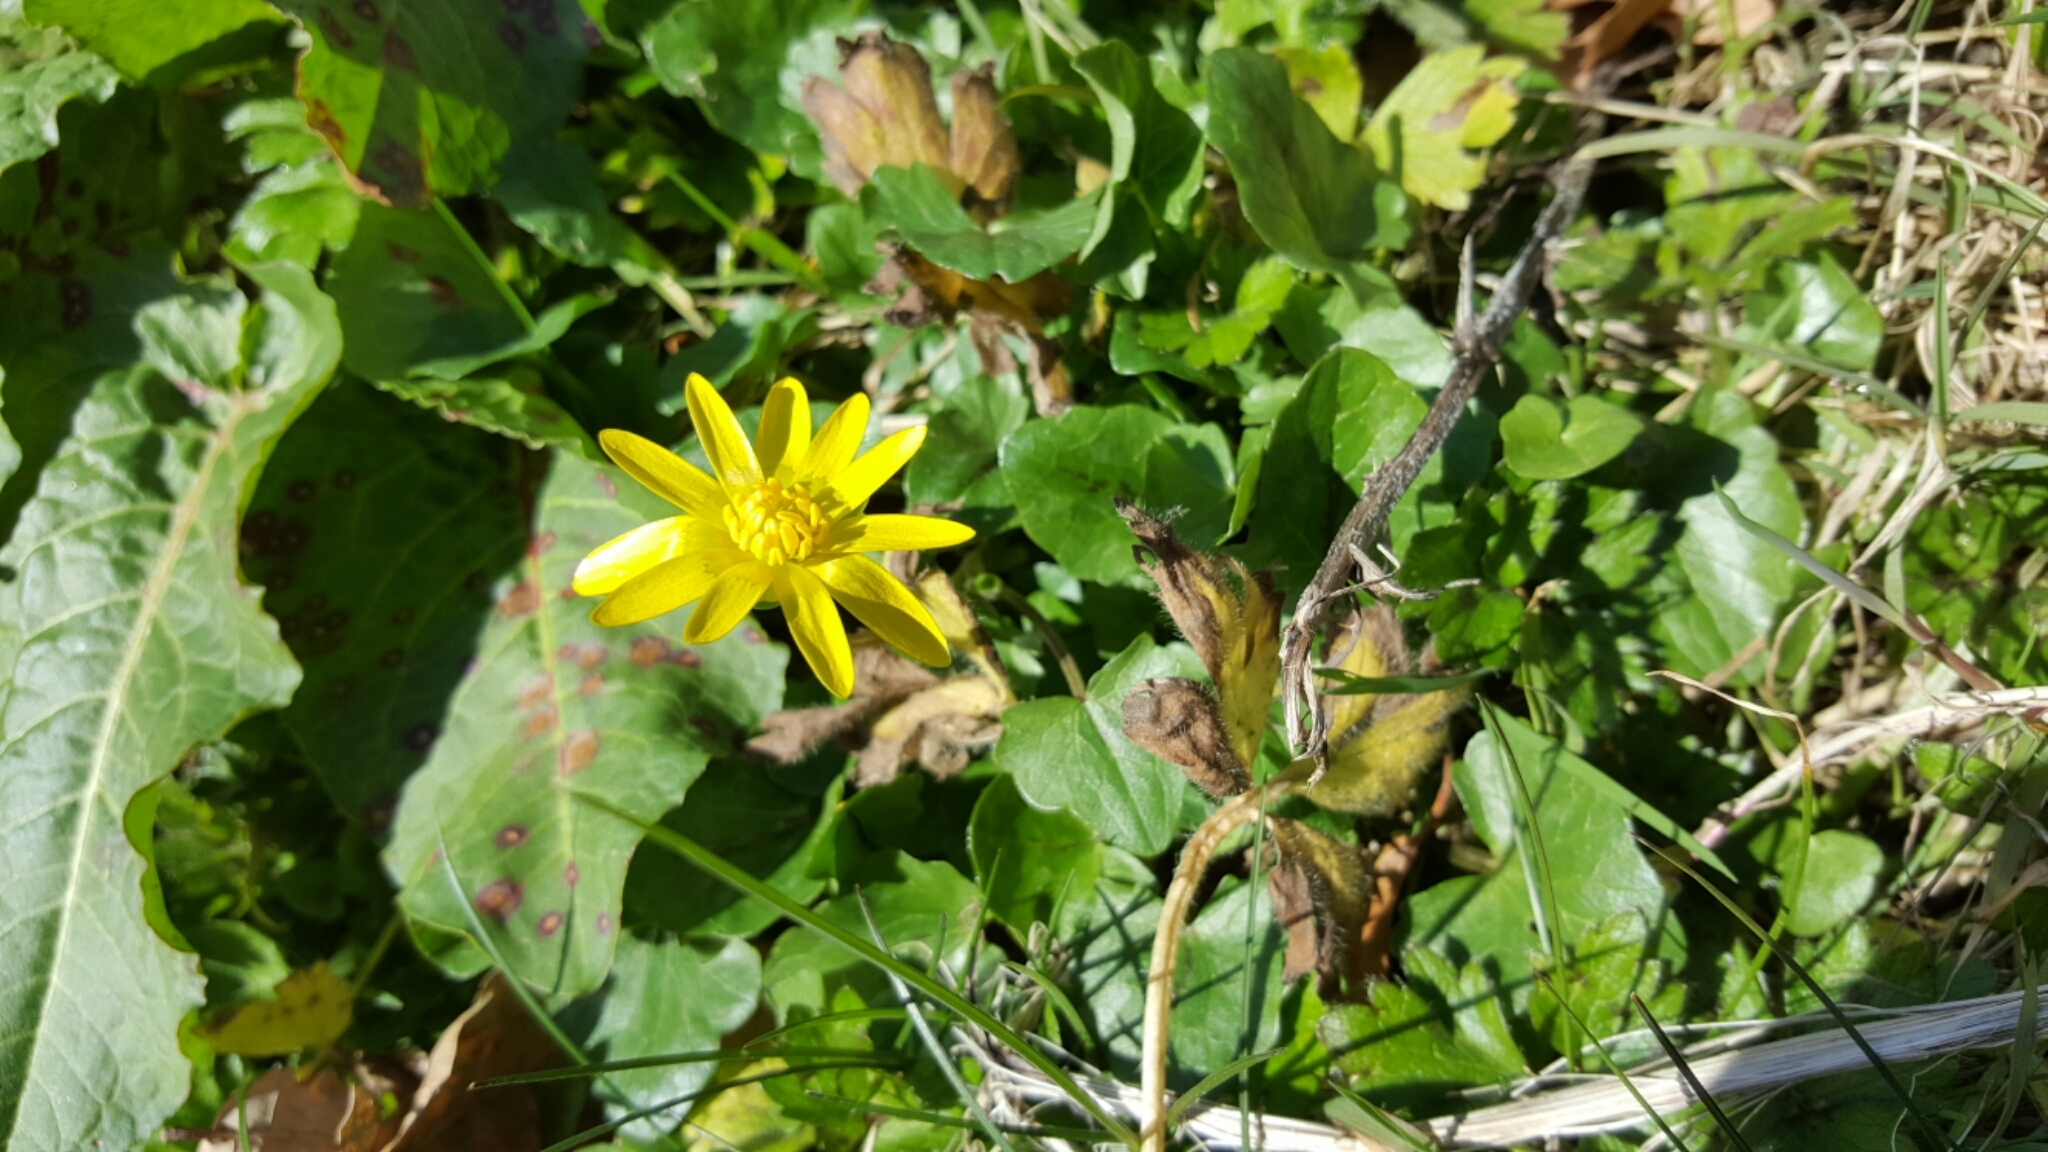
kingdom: Plantae
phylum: Tracheophyta
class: Magnoliopsida
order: Ranunculales
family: Ranunculaceae
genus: Ficaria
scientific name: Ficaria verna
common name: Lesser celandine
